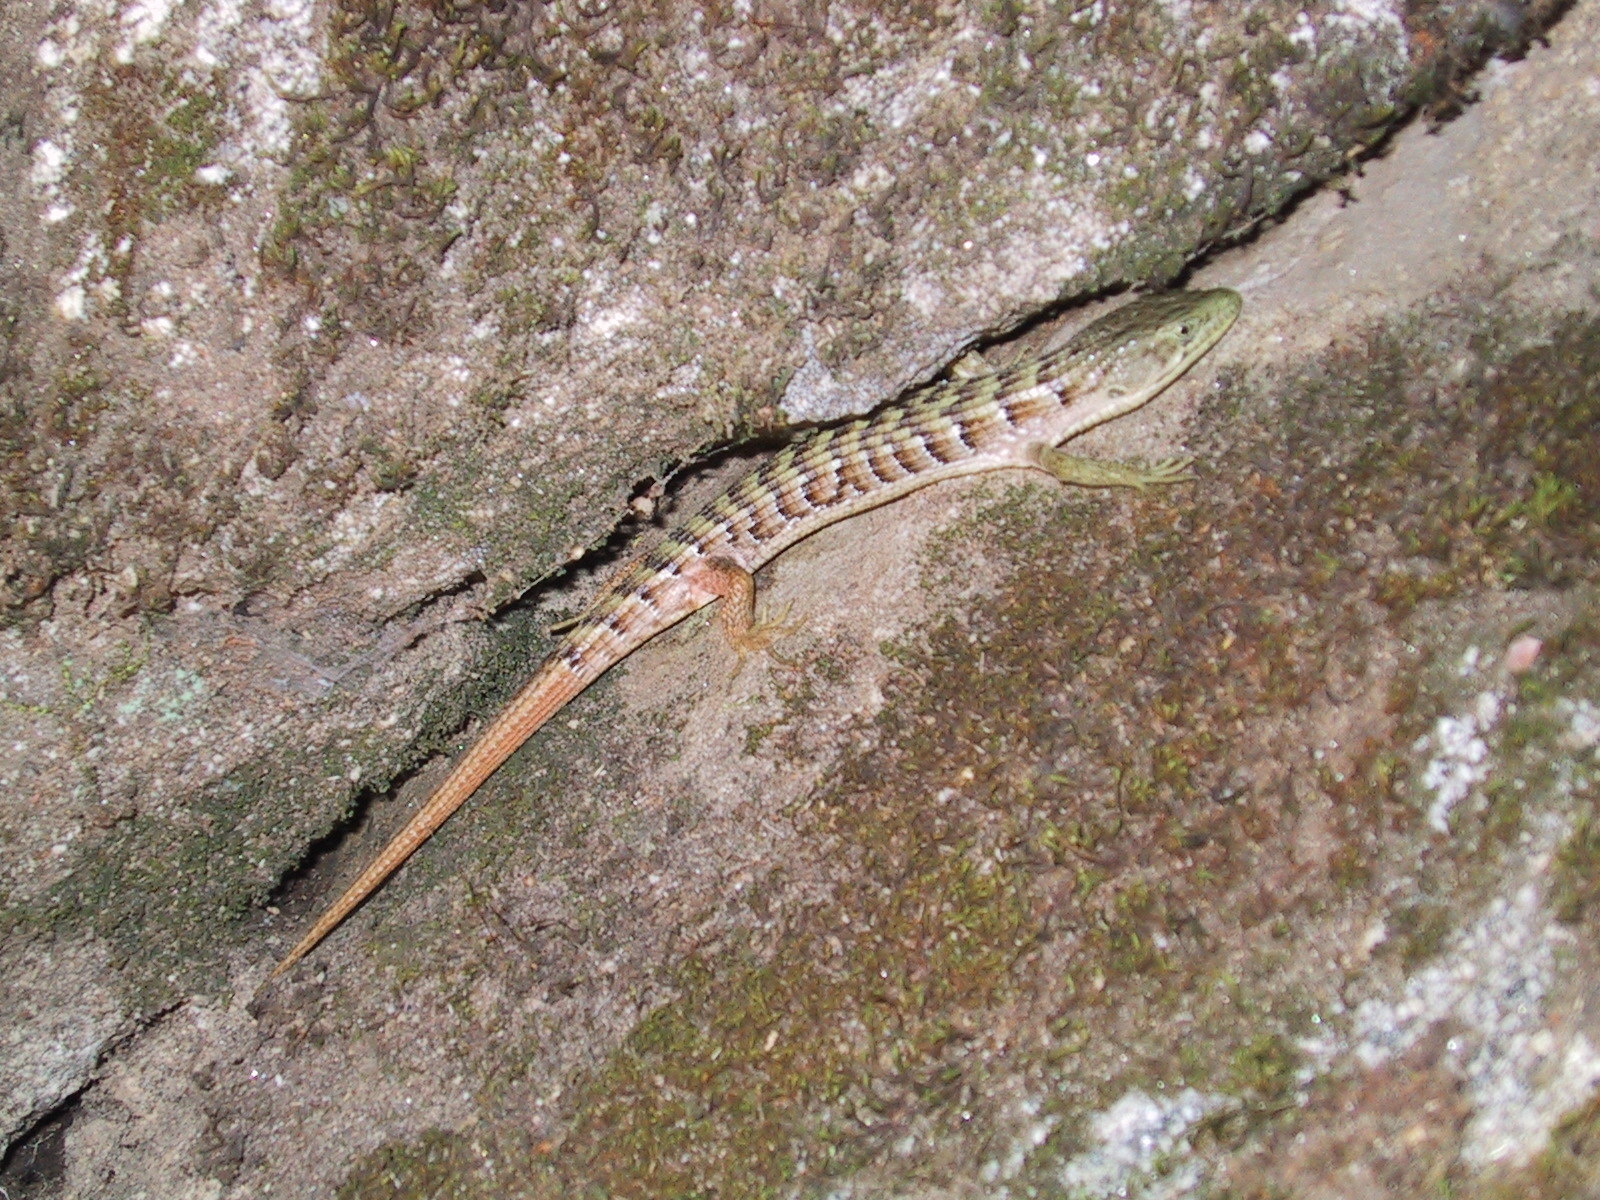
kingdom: Animalia
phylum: Chordata
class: Squamata
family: Anguidae
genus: Elgaria
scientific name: Elgaria multicarinata
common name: Southern alligator lizard
